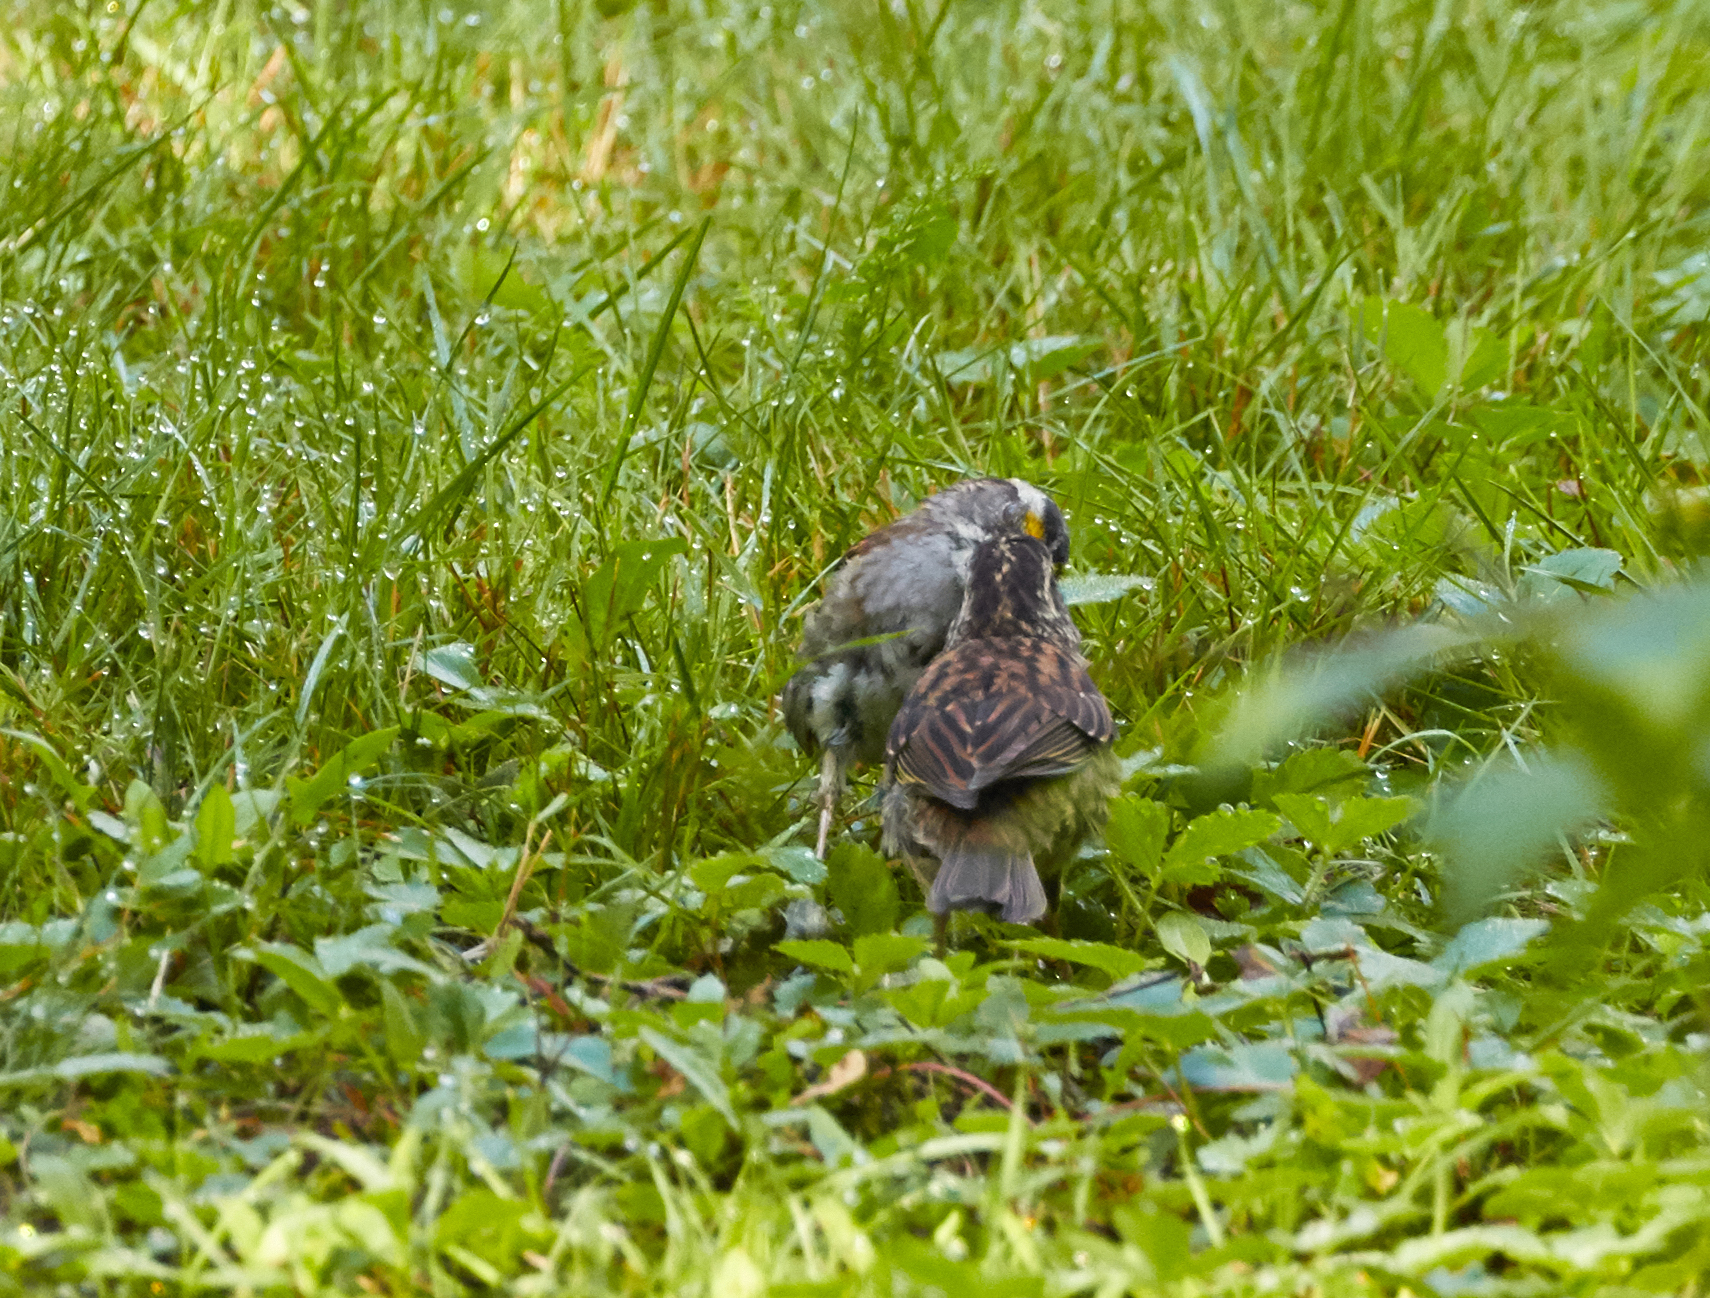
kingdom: Animalia
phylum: Chordata
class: Aves
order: Passeriformes
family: Passerellidae
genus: Zonotrichia
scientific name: Zonotrichia albicollis
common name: White-throated sparrow
